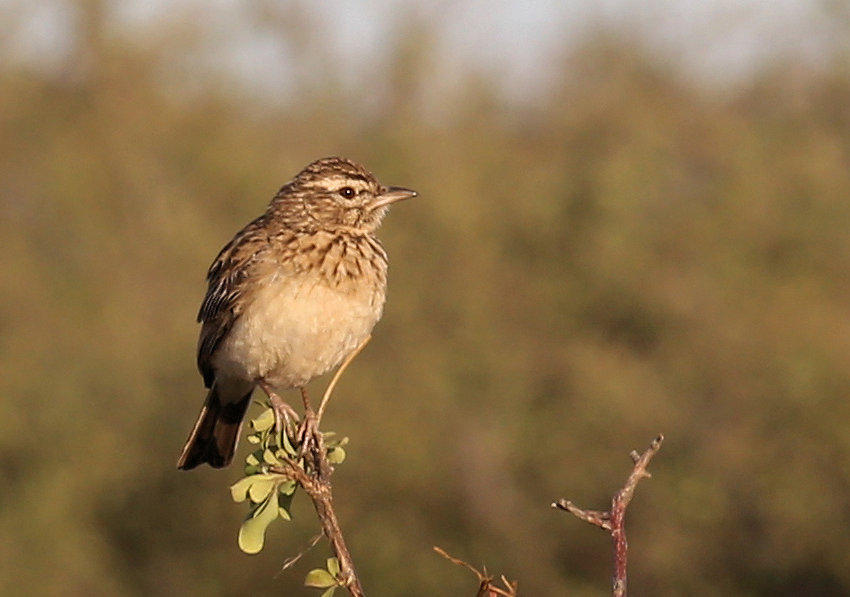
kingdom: Animalia
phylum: Chordata
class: Aves
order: Passeriformes
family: Alaudidae
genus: Calendulauda
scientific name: Calendulauda sabota
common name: Sabota lark
